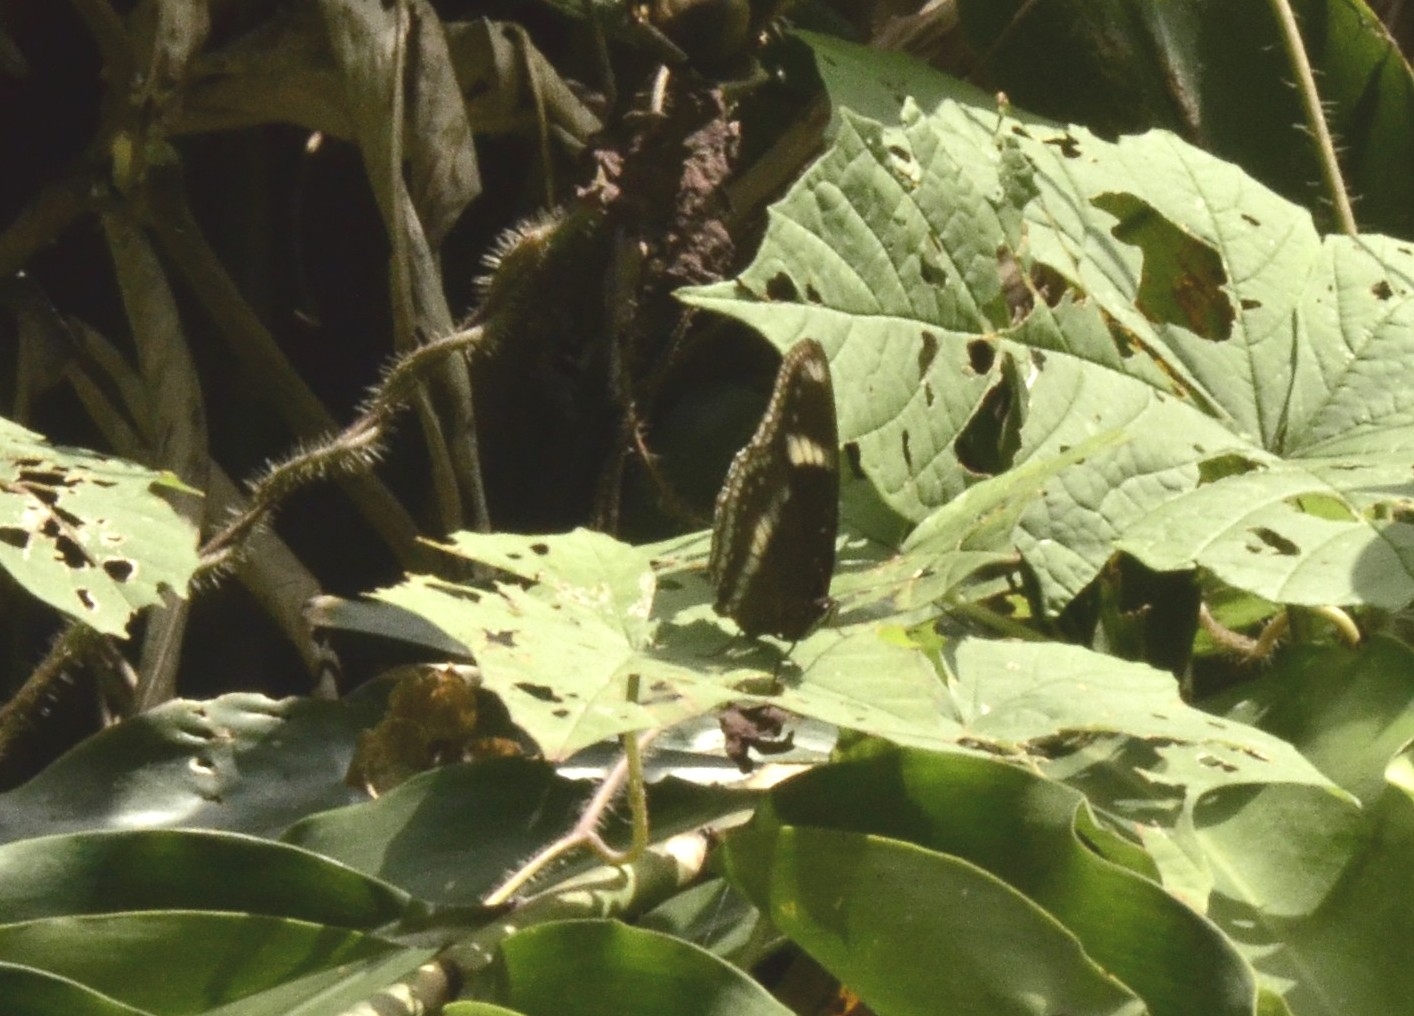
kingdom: Animalia
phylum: Arthropoda
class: Insecta
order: Lepidoptera
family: Nymphalidae
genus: Hypolimnas
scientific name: Hypolimnas bolina
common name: Great eggfly
